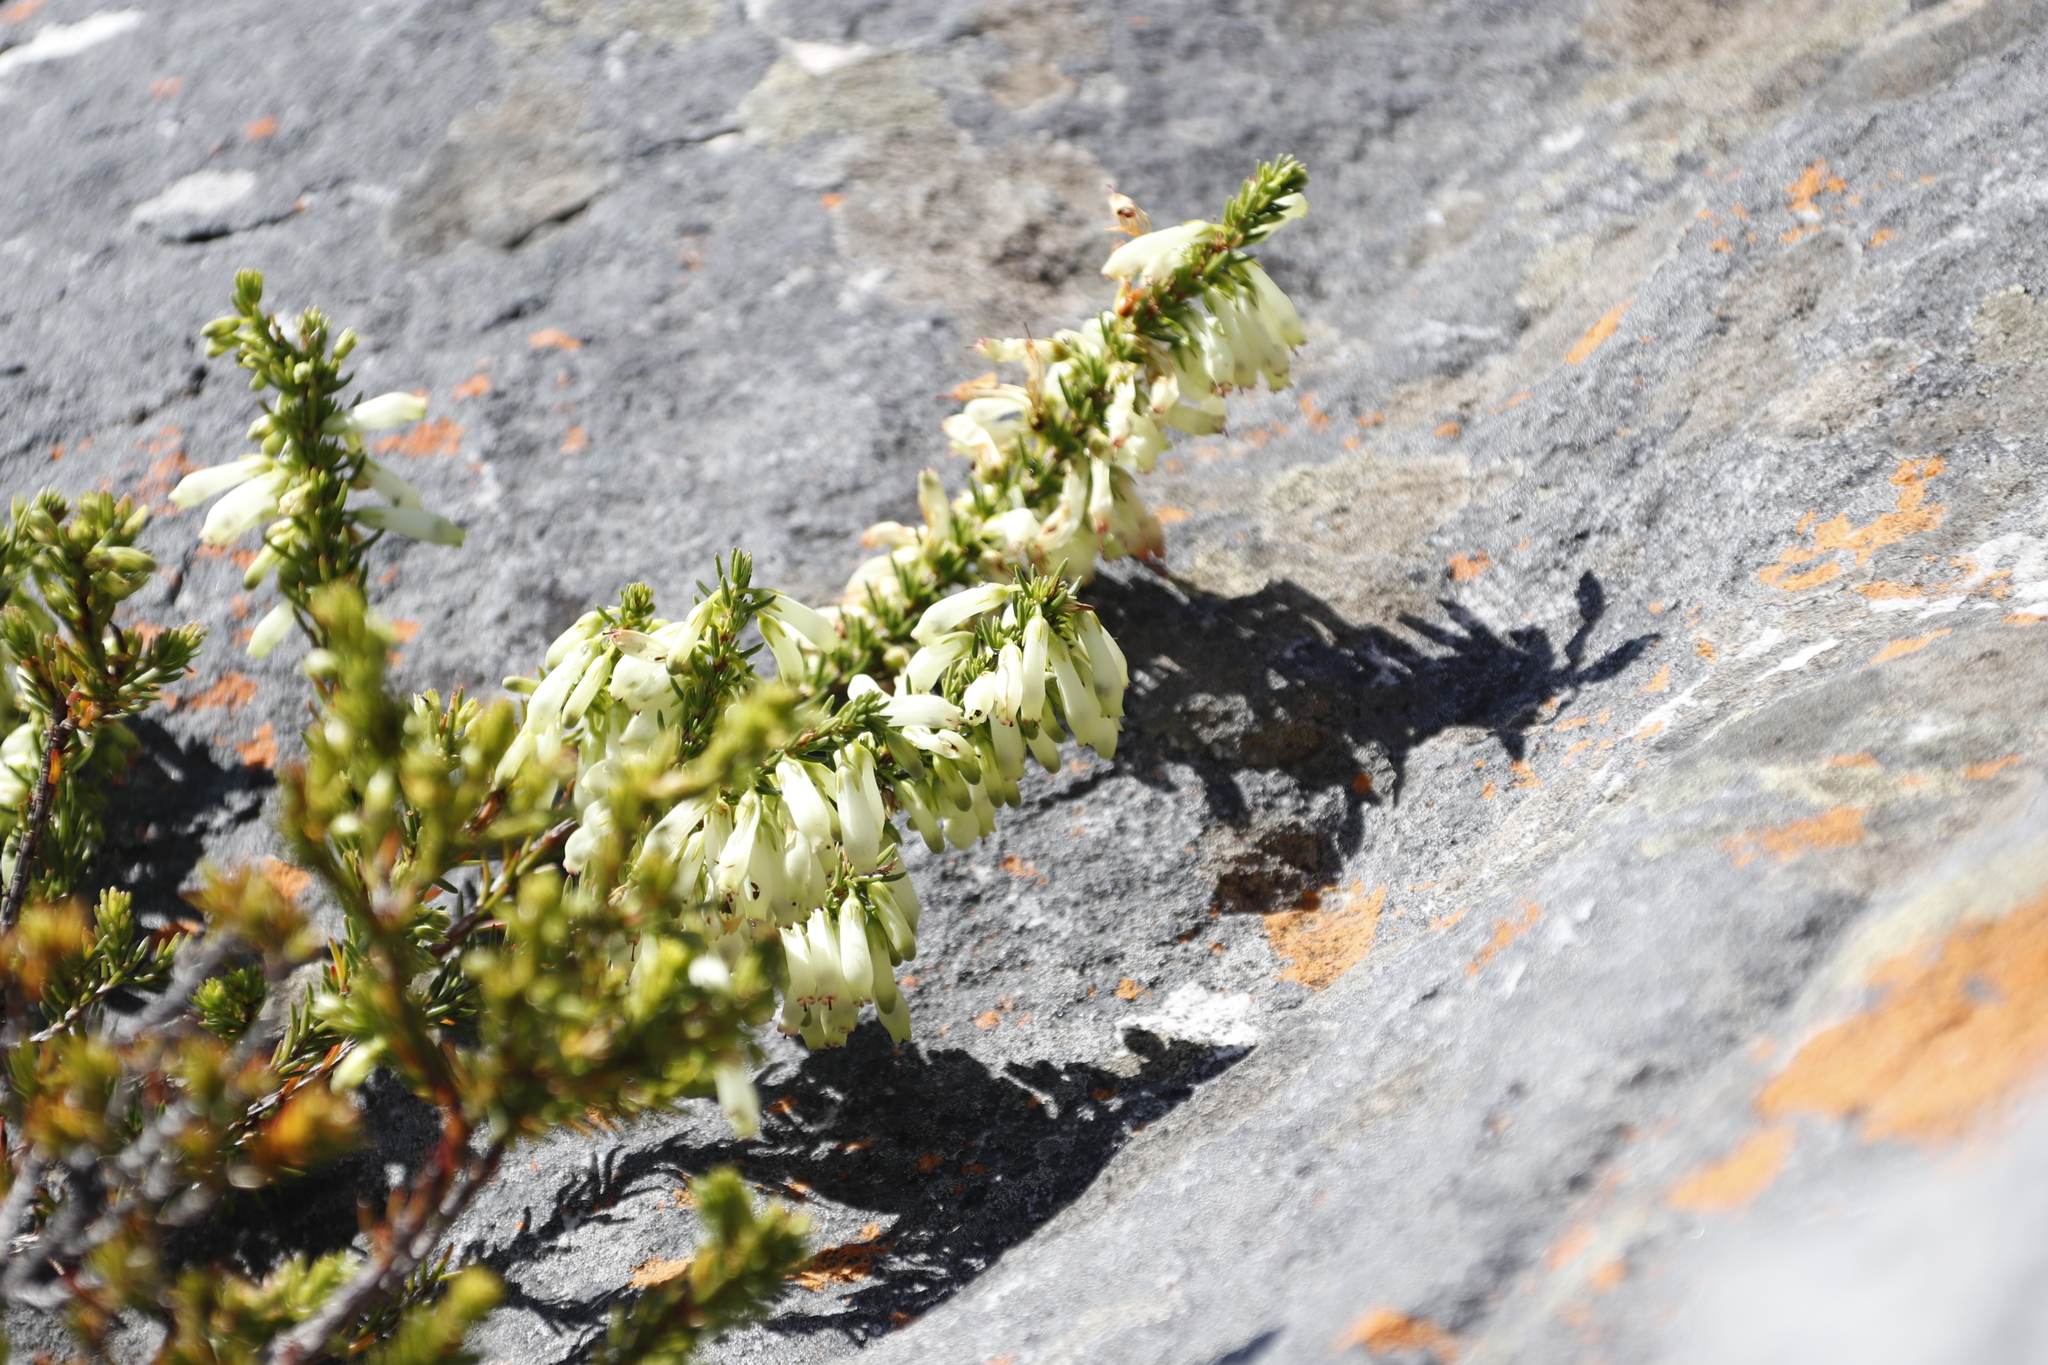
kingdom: Plantae
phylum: Tracheophyta
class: Magnoliopsida
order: Ericales
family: Ericaceae
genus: Erica
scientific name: Erica mammosa
